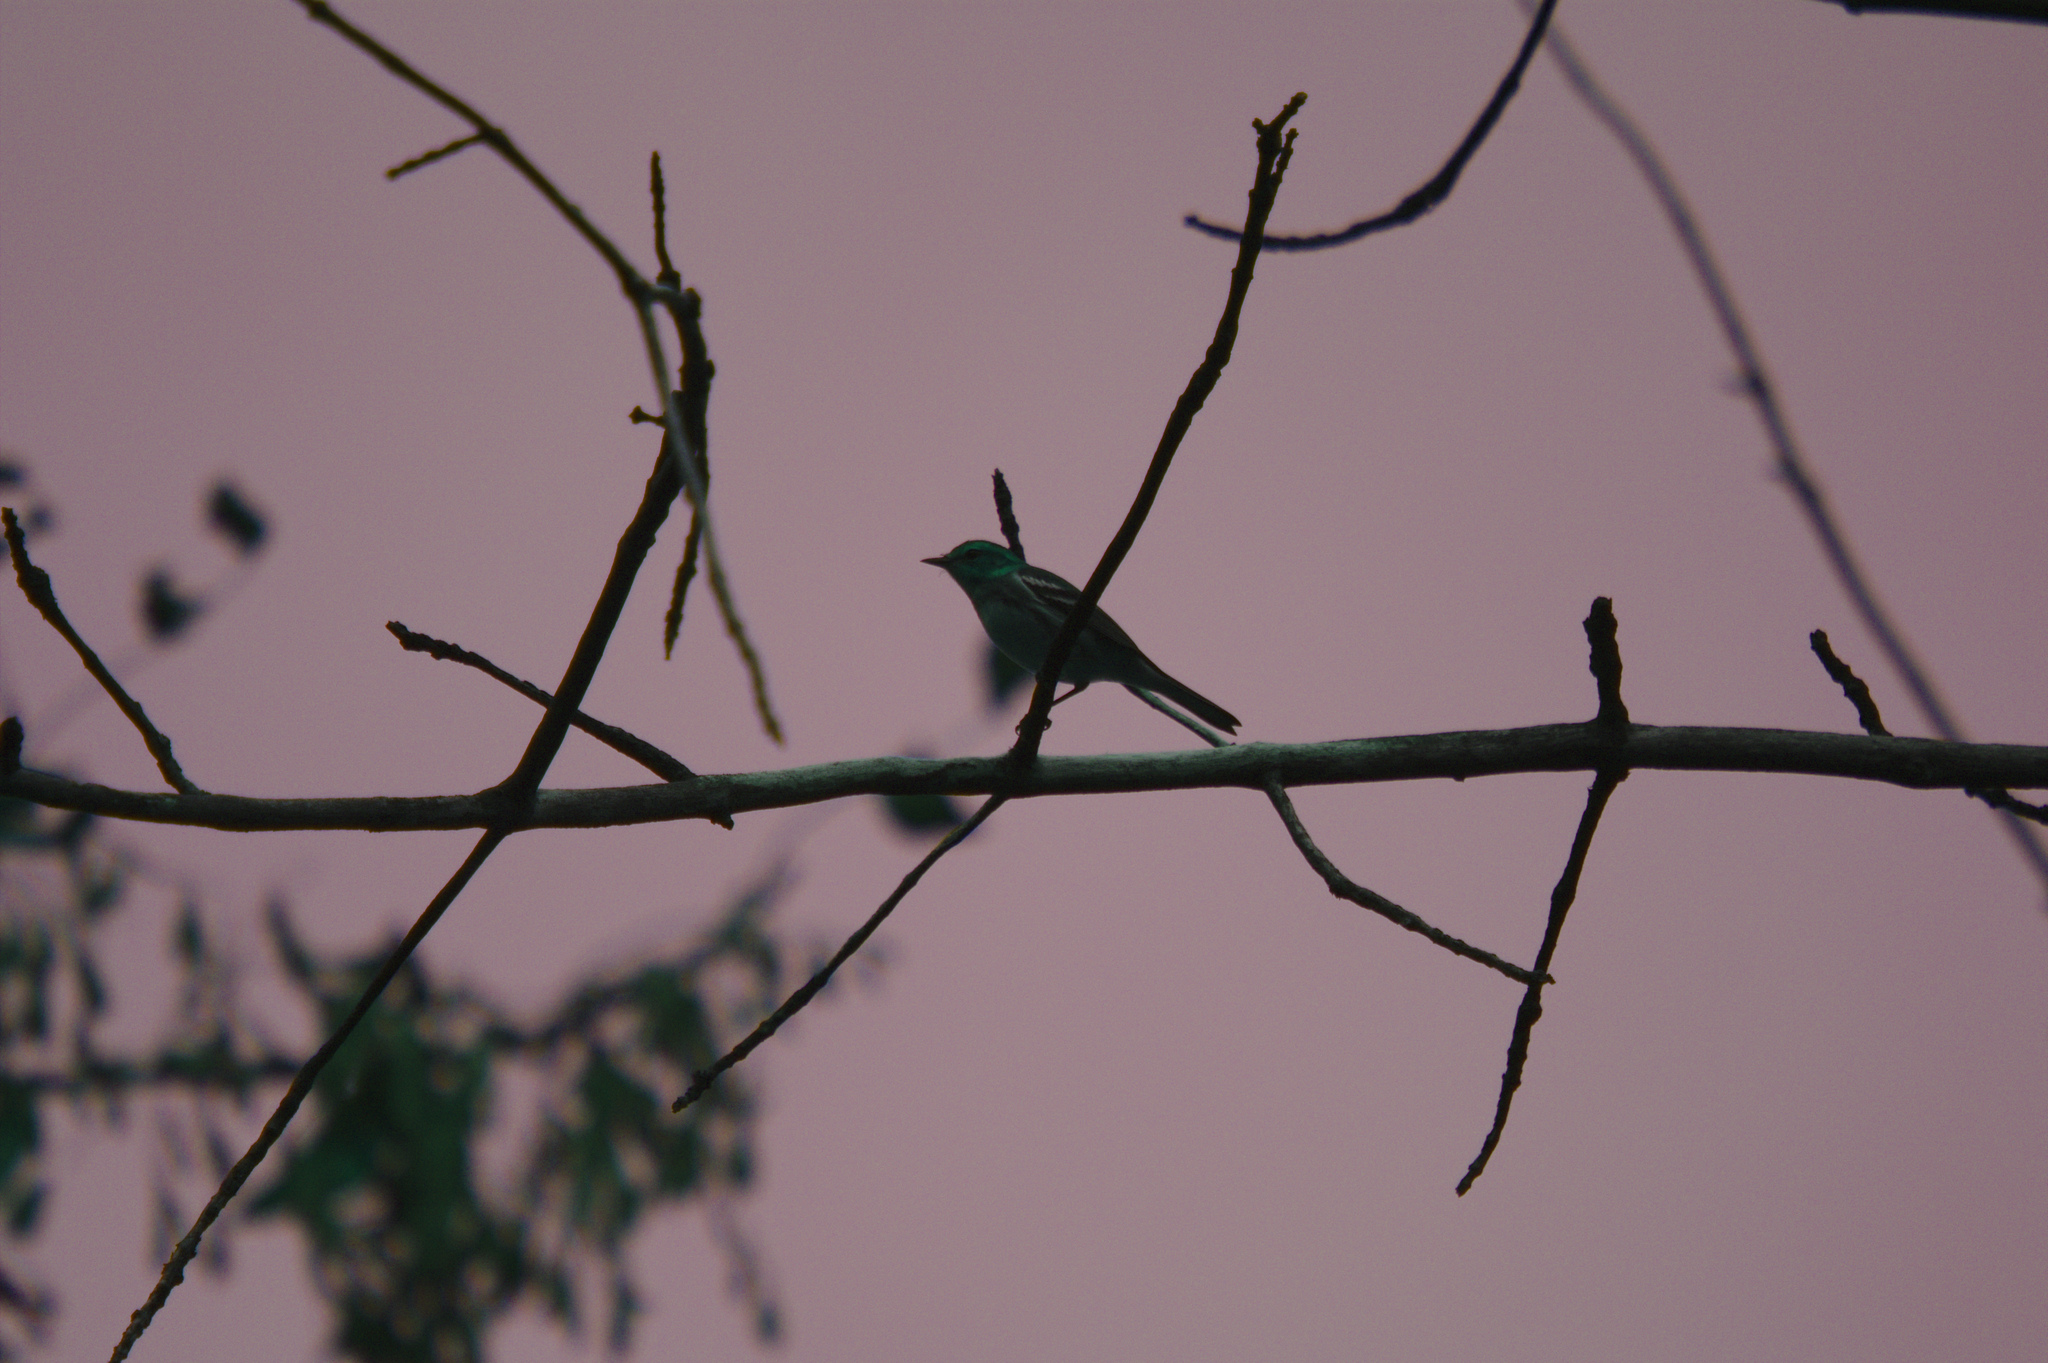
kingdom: Animalia
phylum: Chordata
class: Aves
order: Passeriformes
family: Parulidae
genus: Setophaga
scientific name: Setophaga virens
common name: Black-throated green warbler
